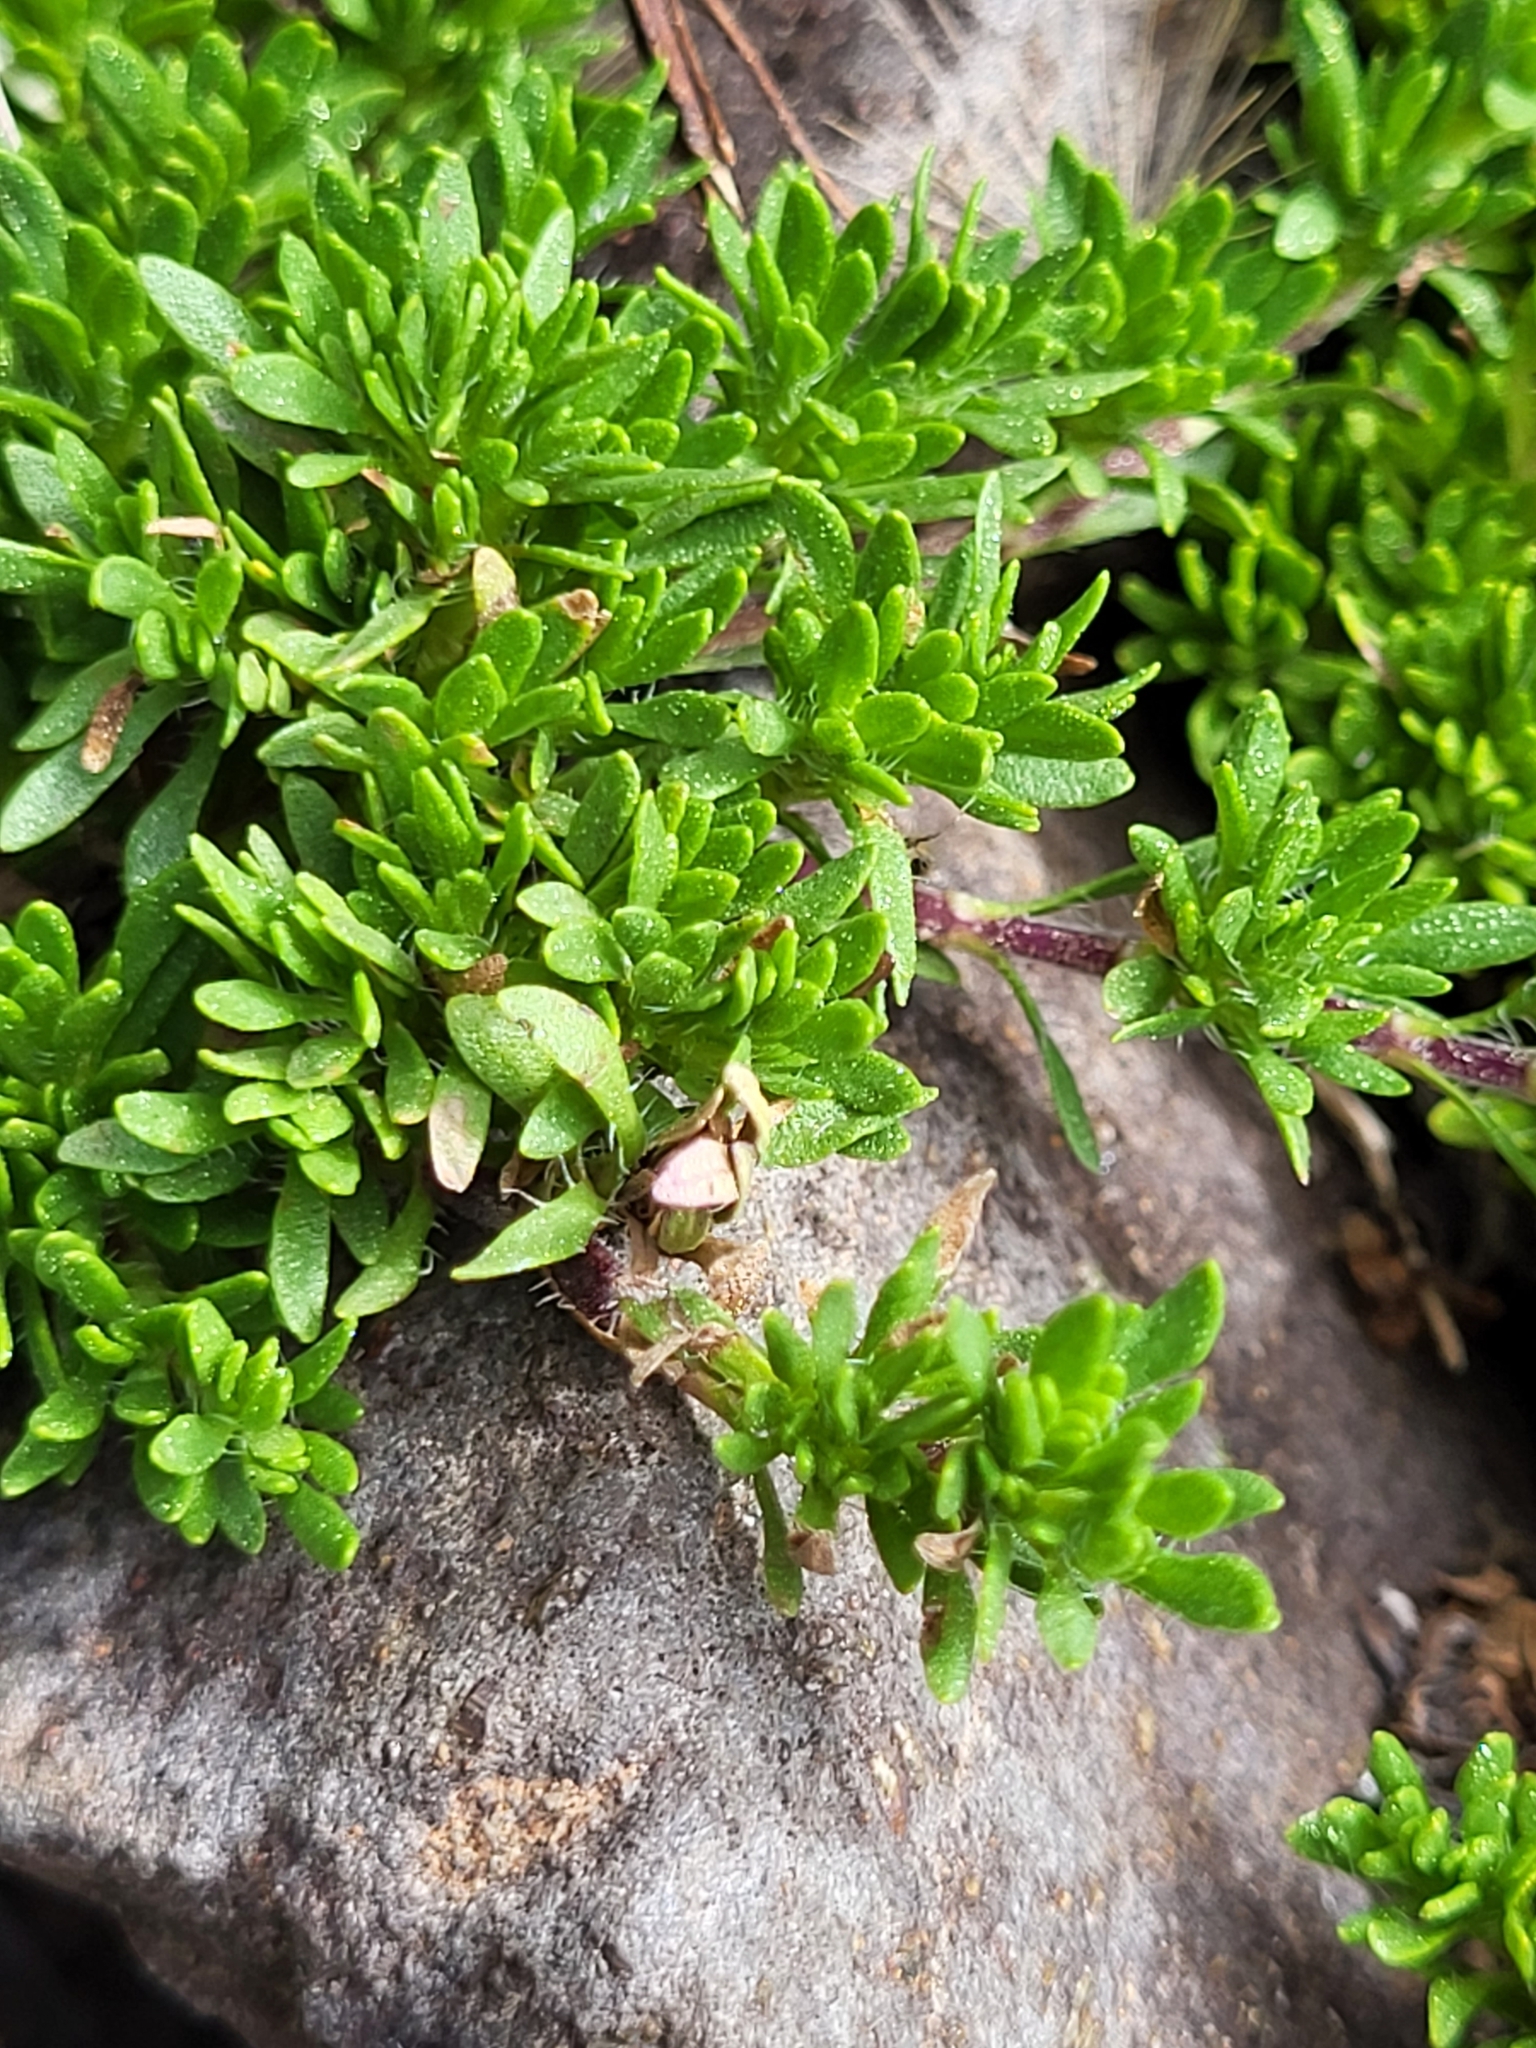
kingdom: Plantae
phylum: Tracheophyta
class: Magnoliopsida
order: Lamiales
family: Lamiaceae
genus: Thymus
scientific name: Thymus caespititius
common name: Azores thyme
